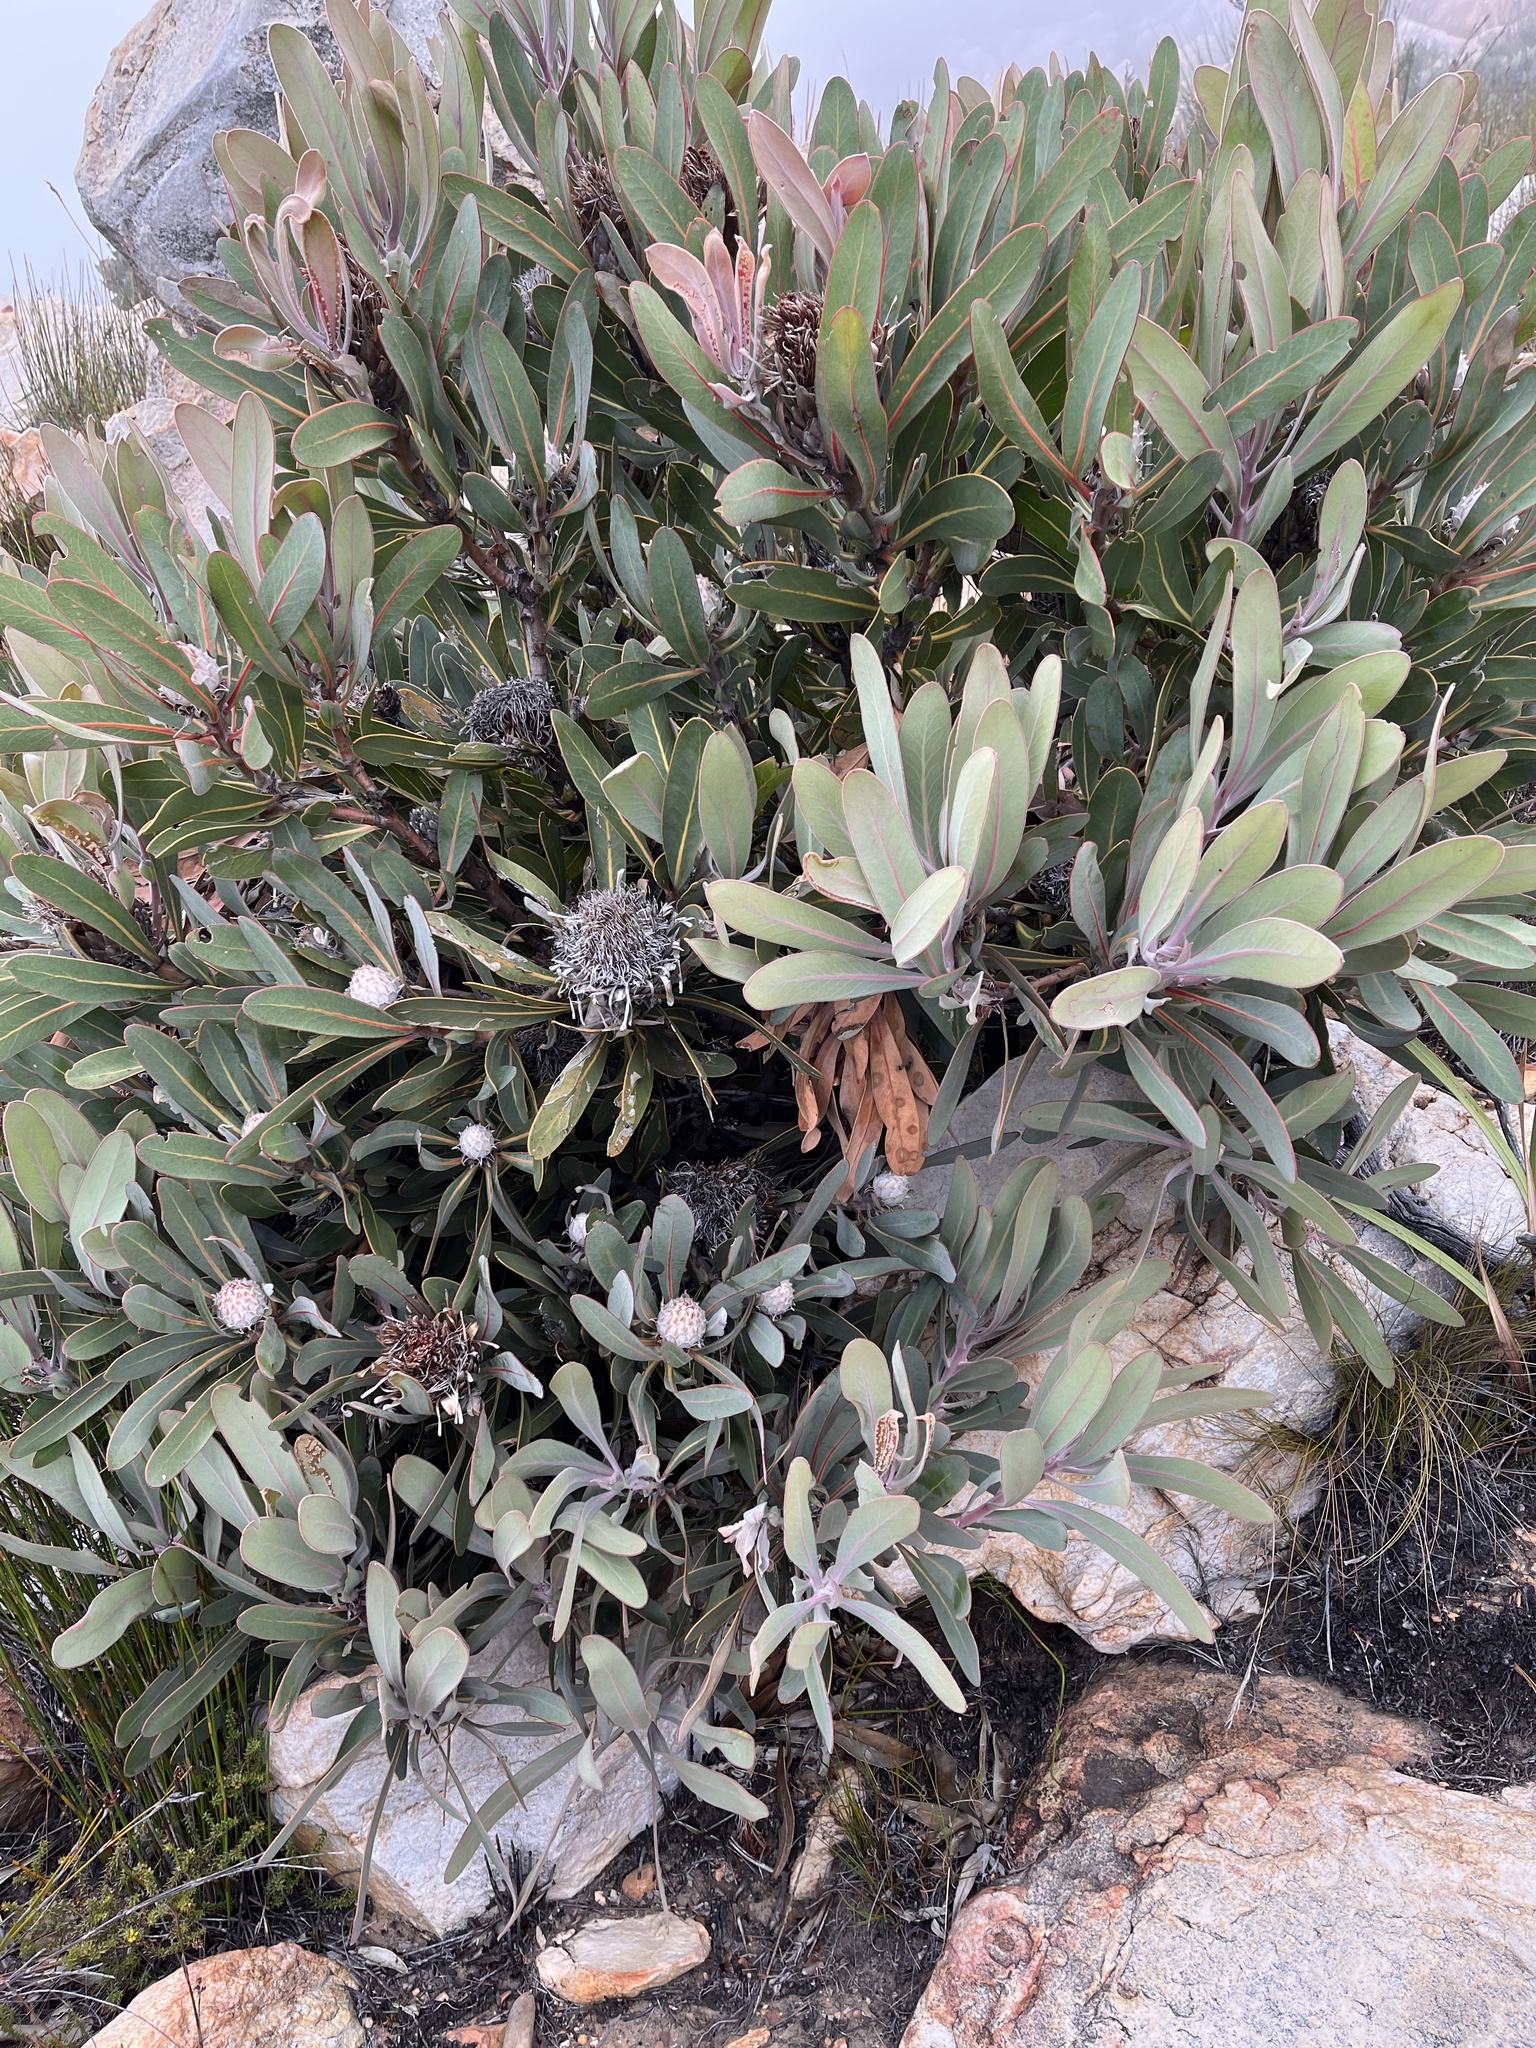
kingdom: Plantae
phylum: Tracheophyta
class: Magnoliopsida
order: Proteales
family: Proteaceae
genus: Protea
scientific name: Protea lorifolia
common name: Strap-leaved protea
